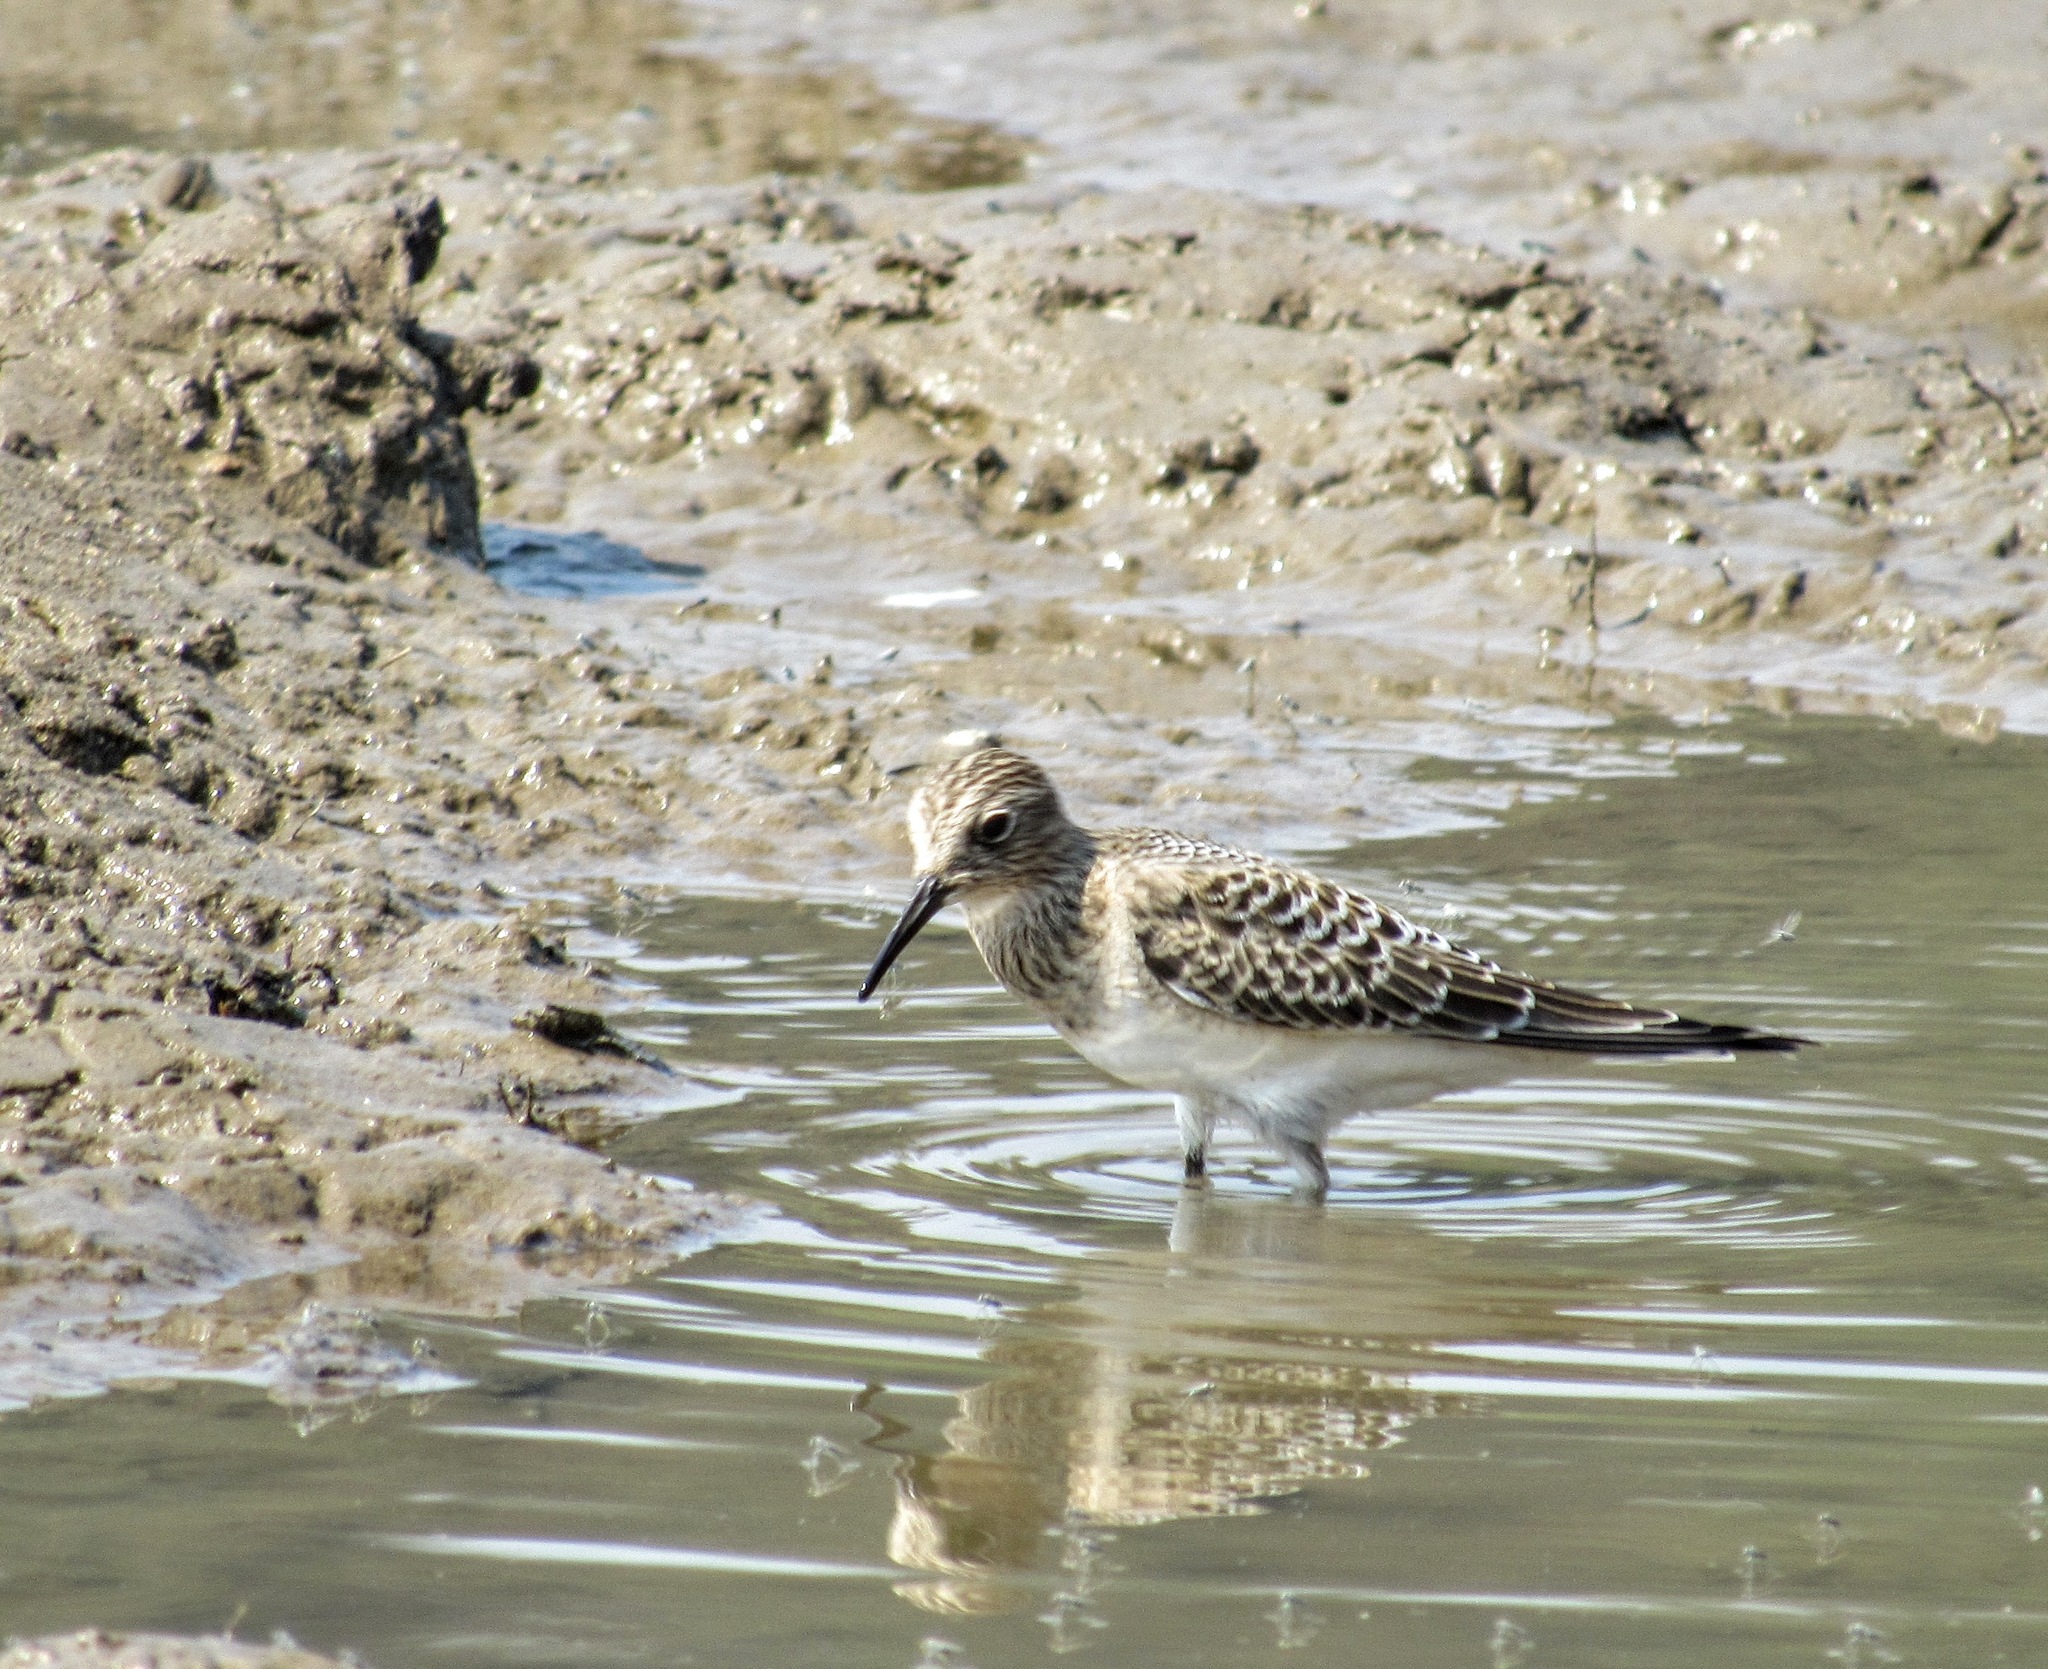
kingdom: Animalia
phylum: Chordata
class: Aves
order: Charadriiformes
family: Scolopacidae
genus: Calidris
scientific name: Calidris bairdii
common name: Baird's sandpiper
